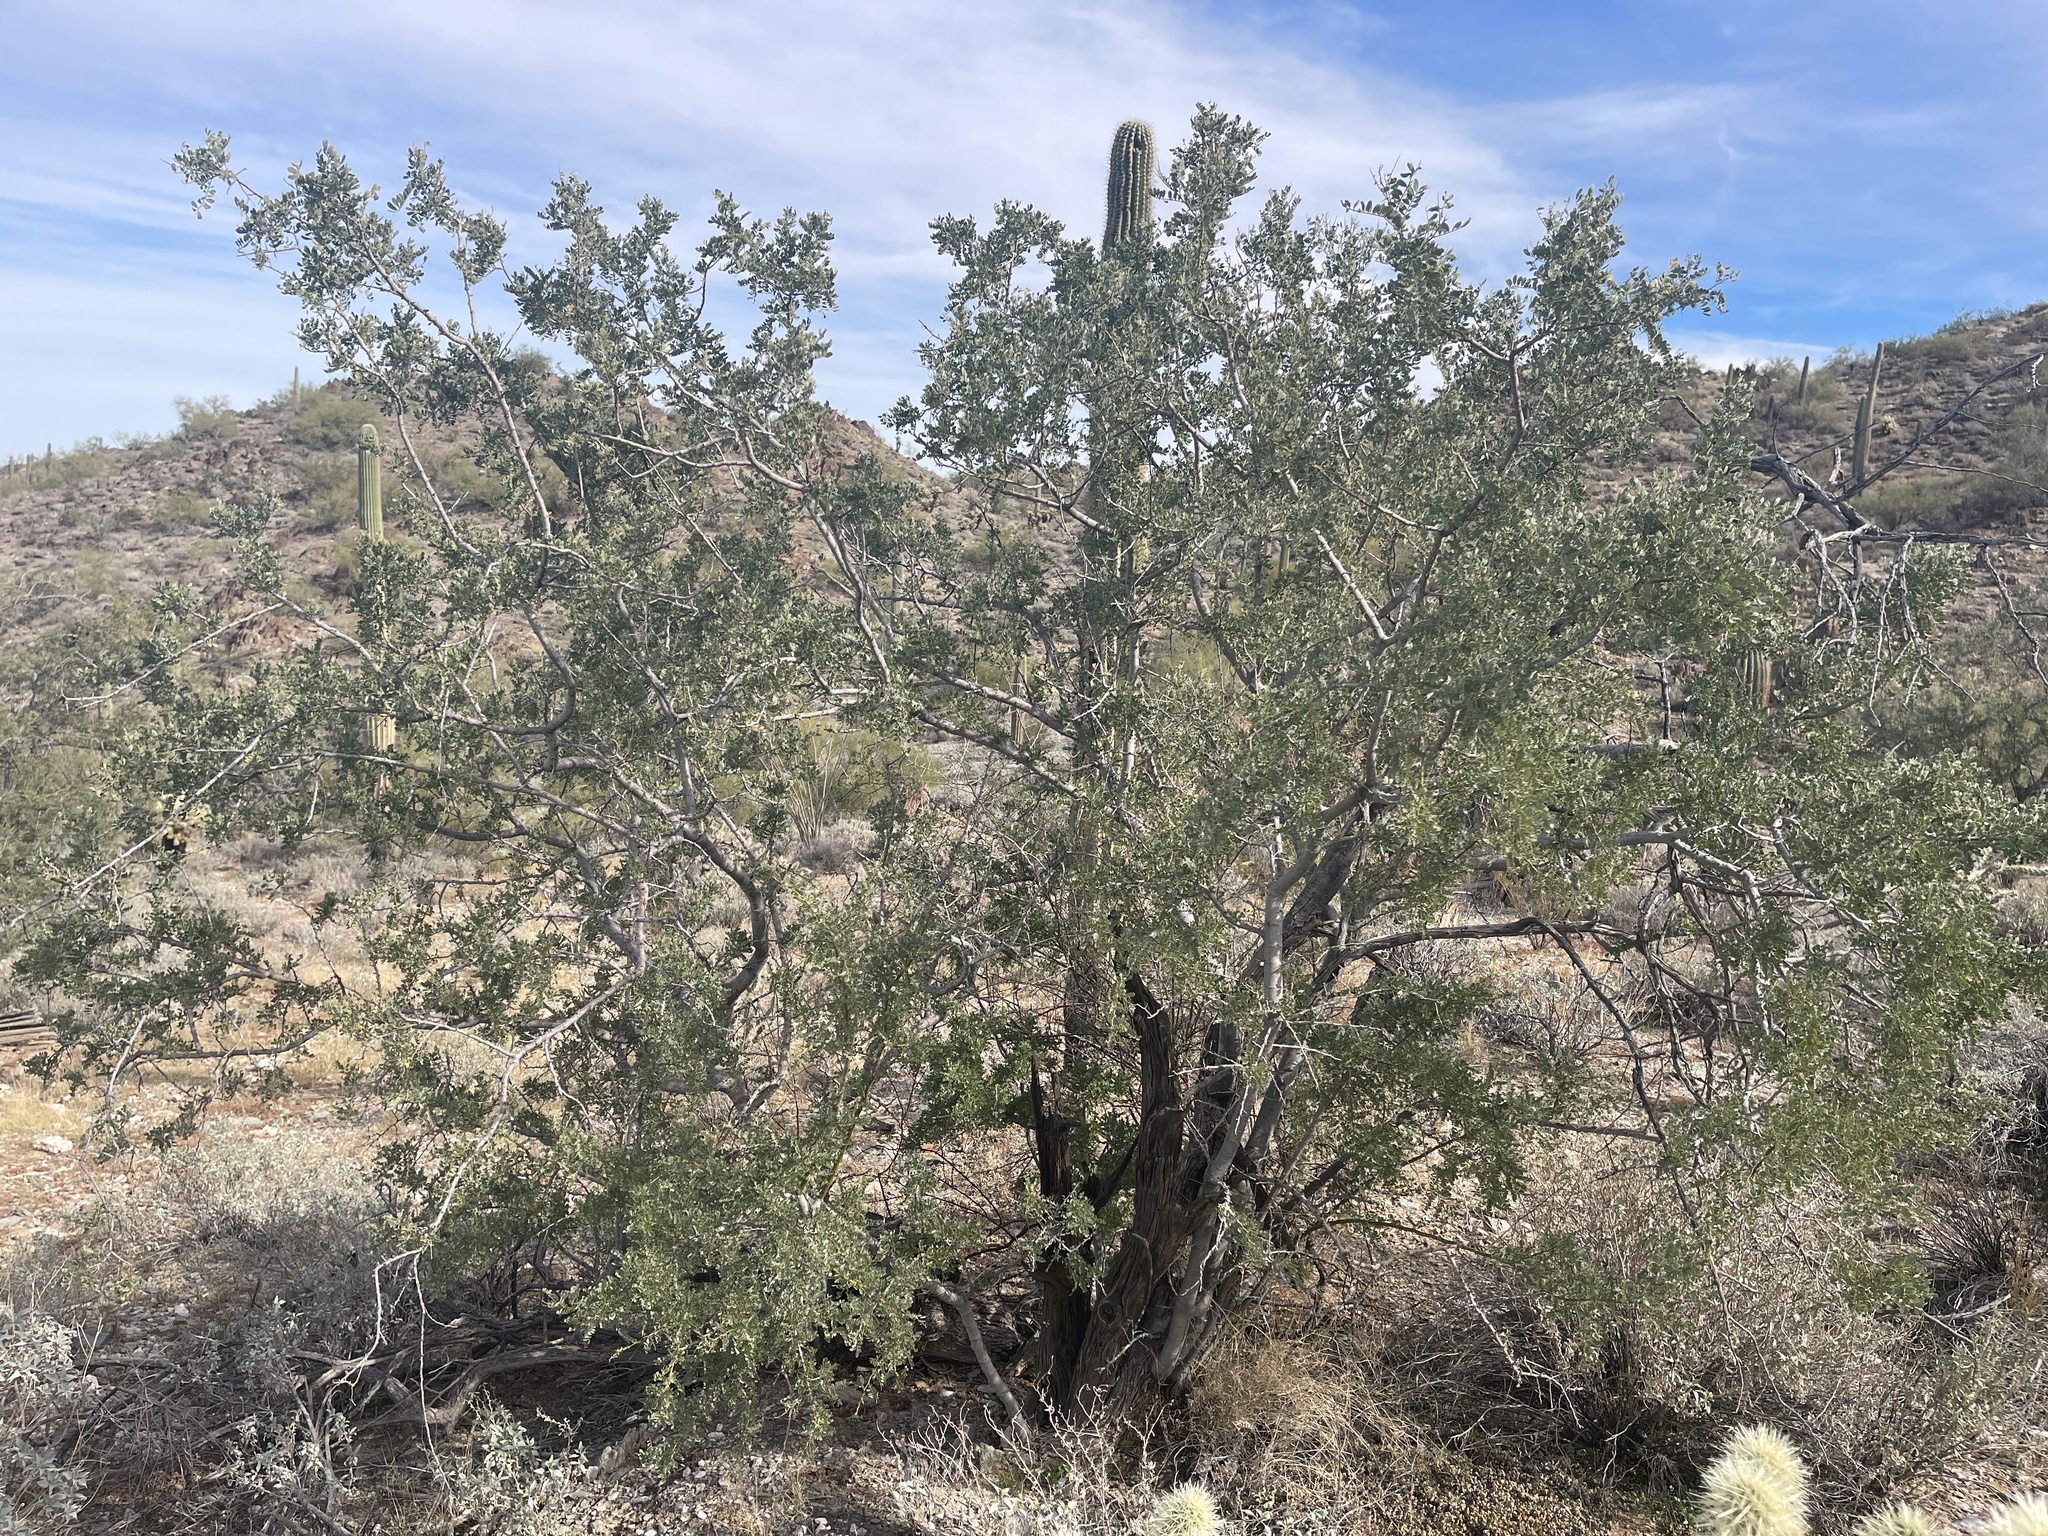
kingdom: Plantae
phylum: Tracheophyta
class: Magnoliopsida
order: Fabales
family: Fabaceae
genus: Olneya
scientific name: Olneya tesota
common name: Desert ironwood
